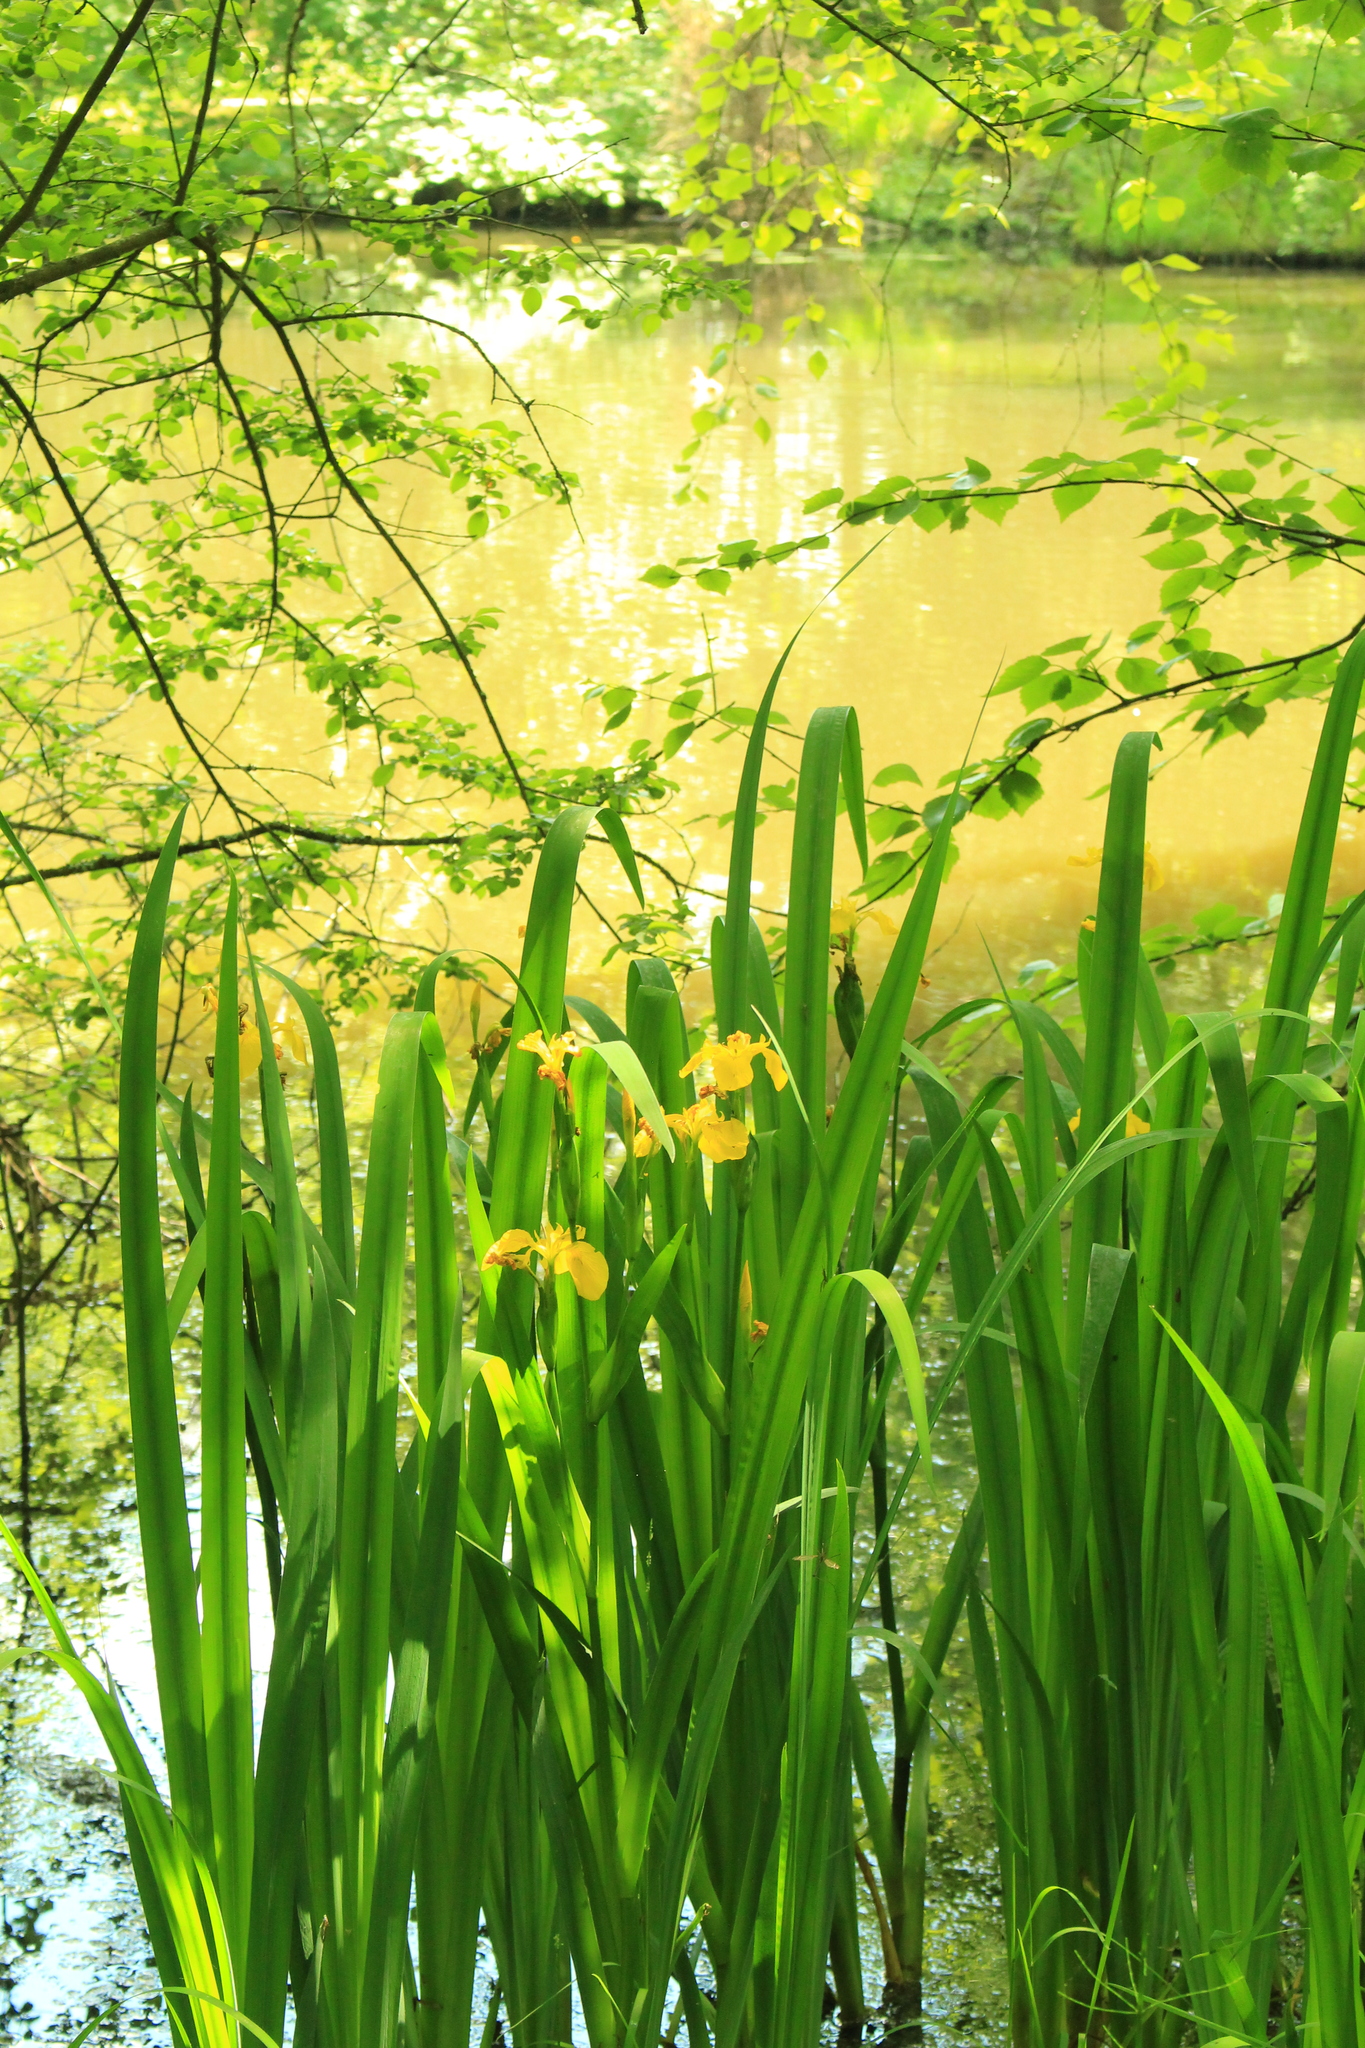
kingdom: Plantae
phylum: Tracheophyta
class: Liliopsida
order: Asparagales
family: Iridaceae
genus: Iris
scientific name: Iris pseudacorus
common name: Yellow flag
